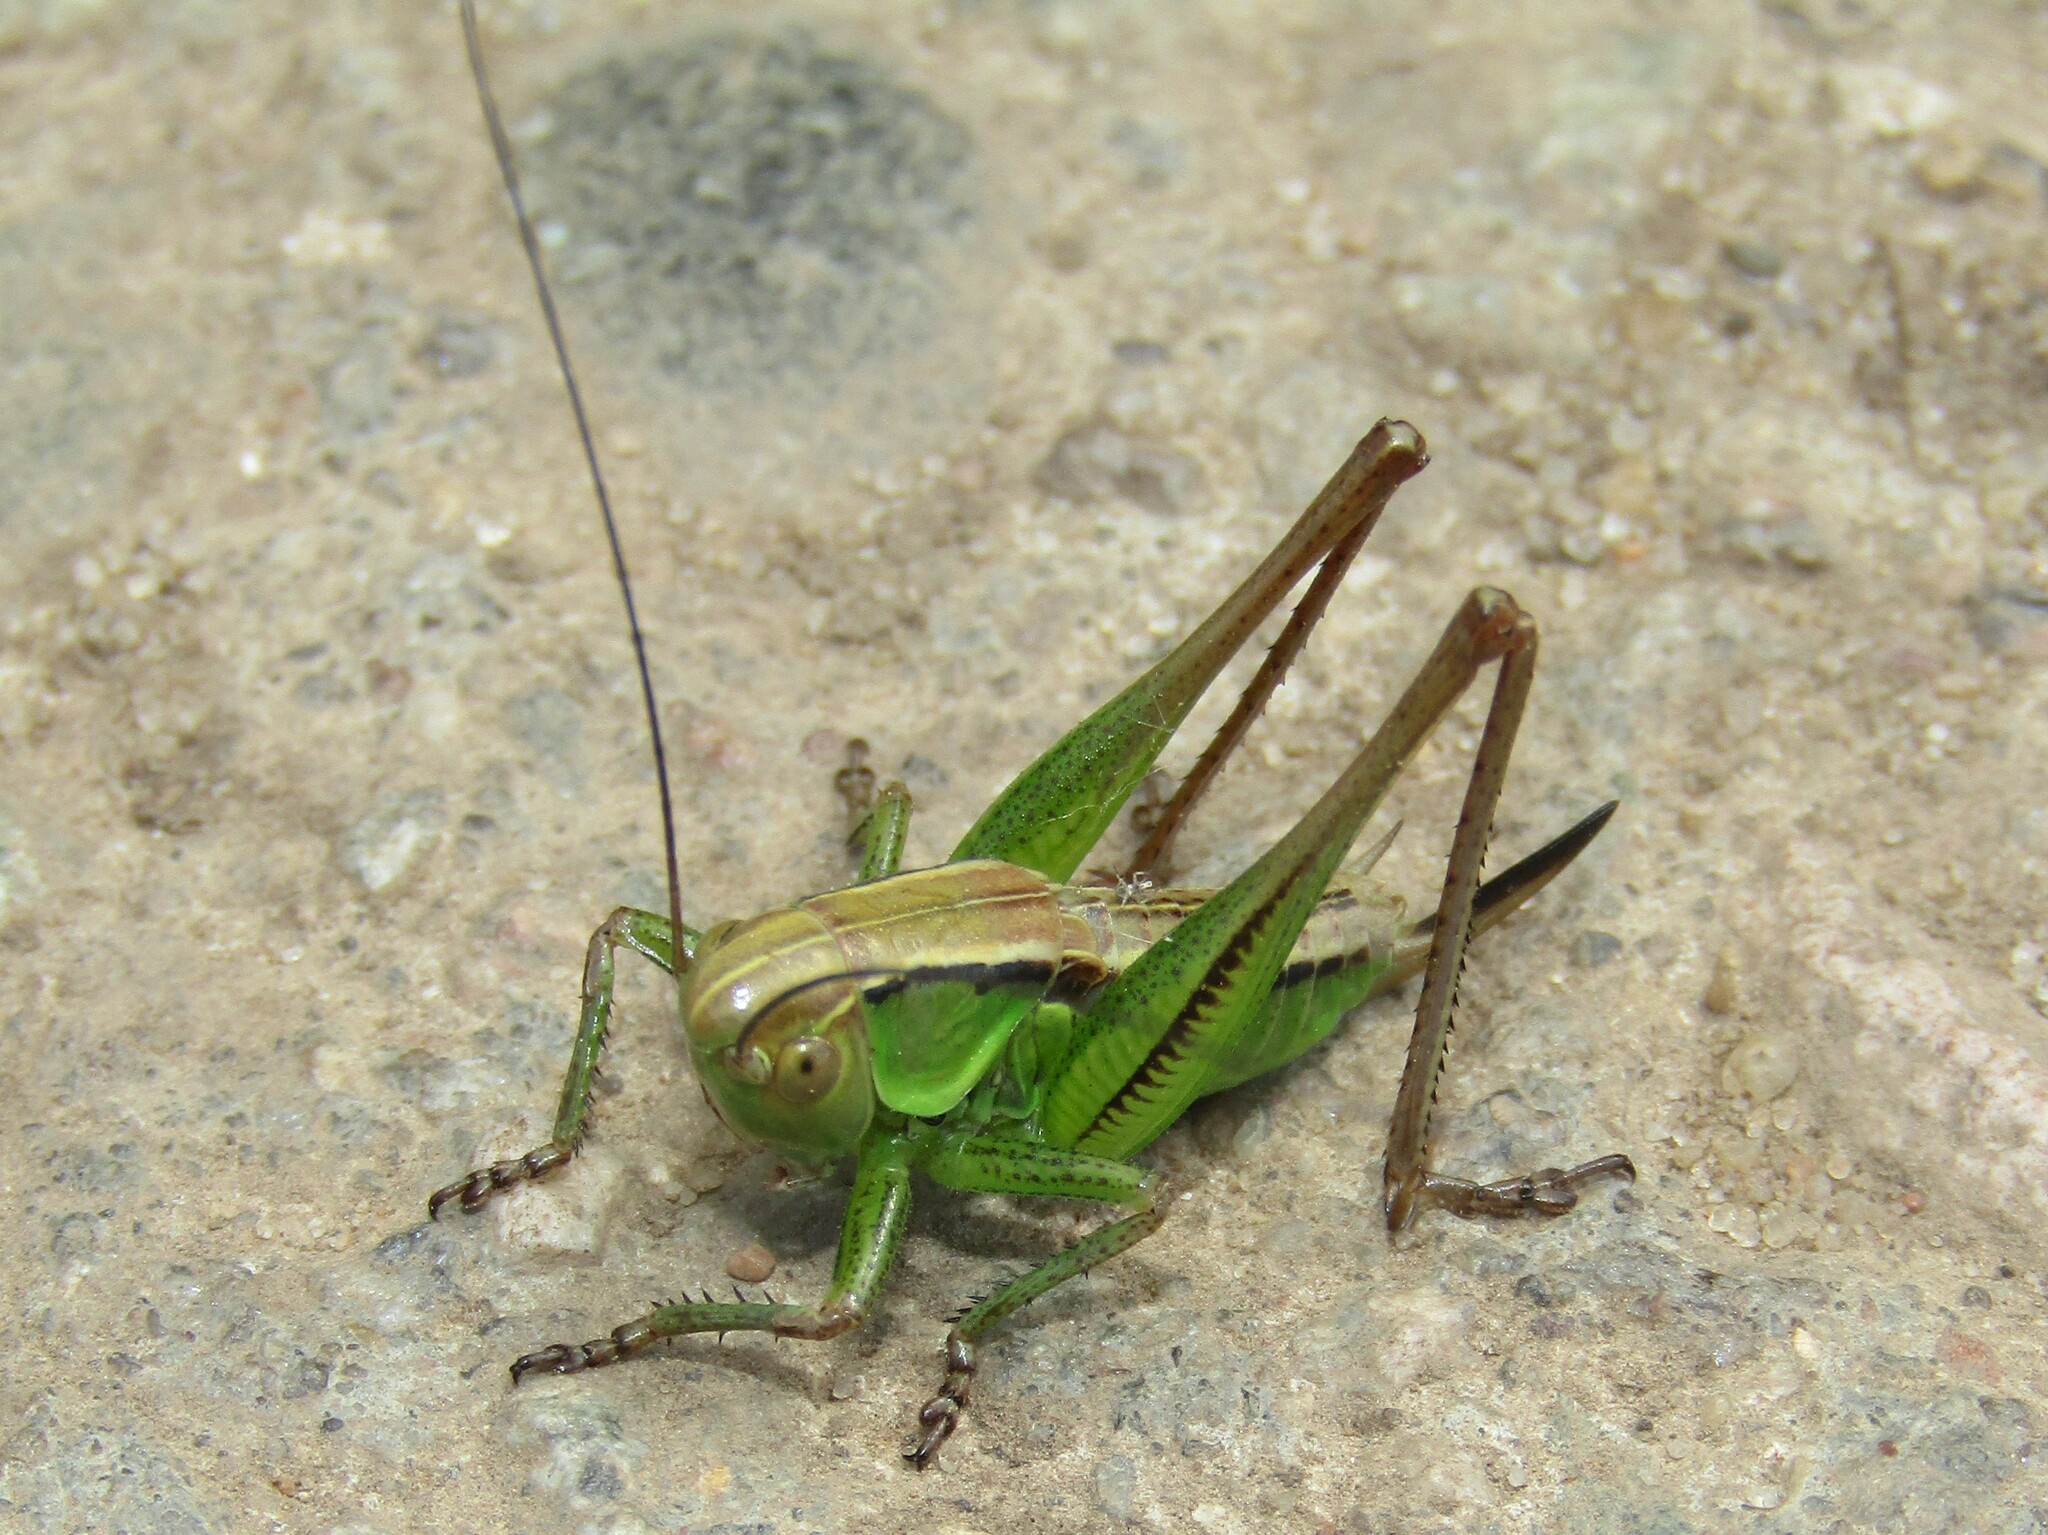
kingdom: Animalia
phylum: Arthropoda
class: Insecta
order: Orthoptera
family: Tettigoniidae
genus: Roeseliana
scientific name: Roeseliana roeselii
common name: Roesel's bush cricket
